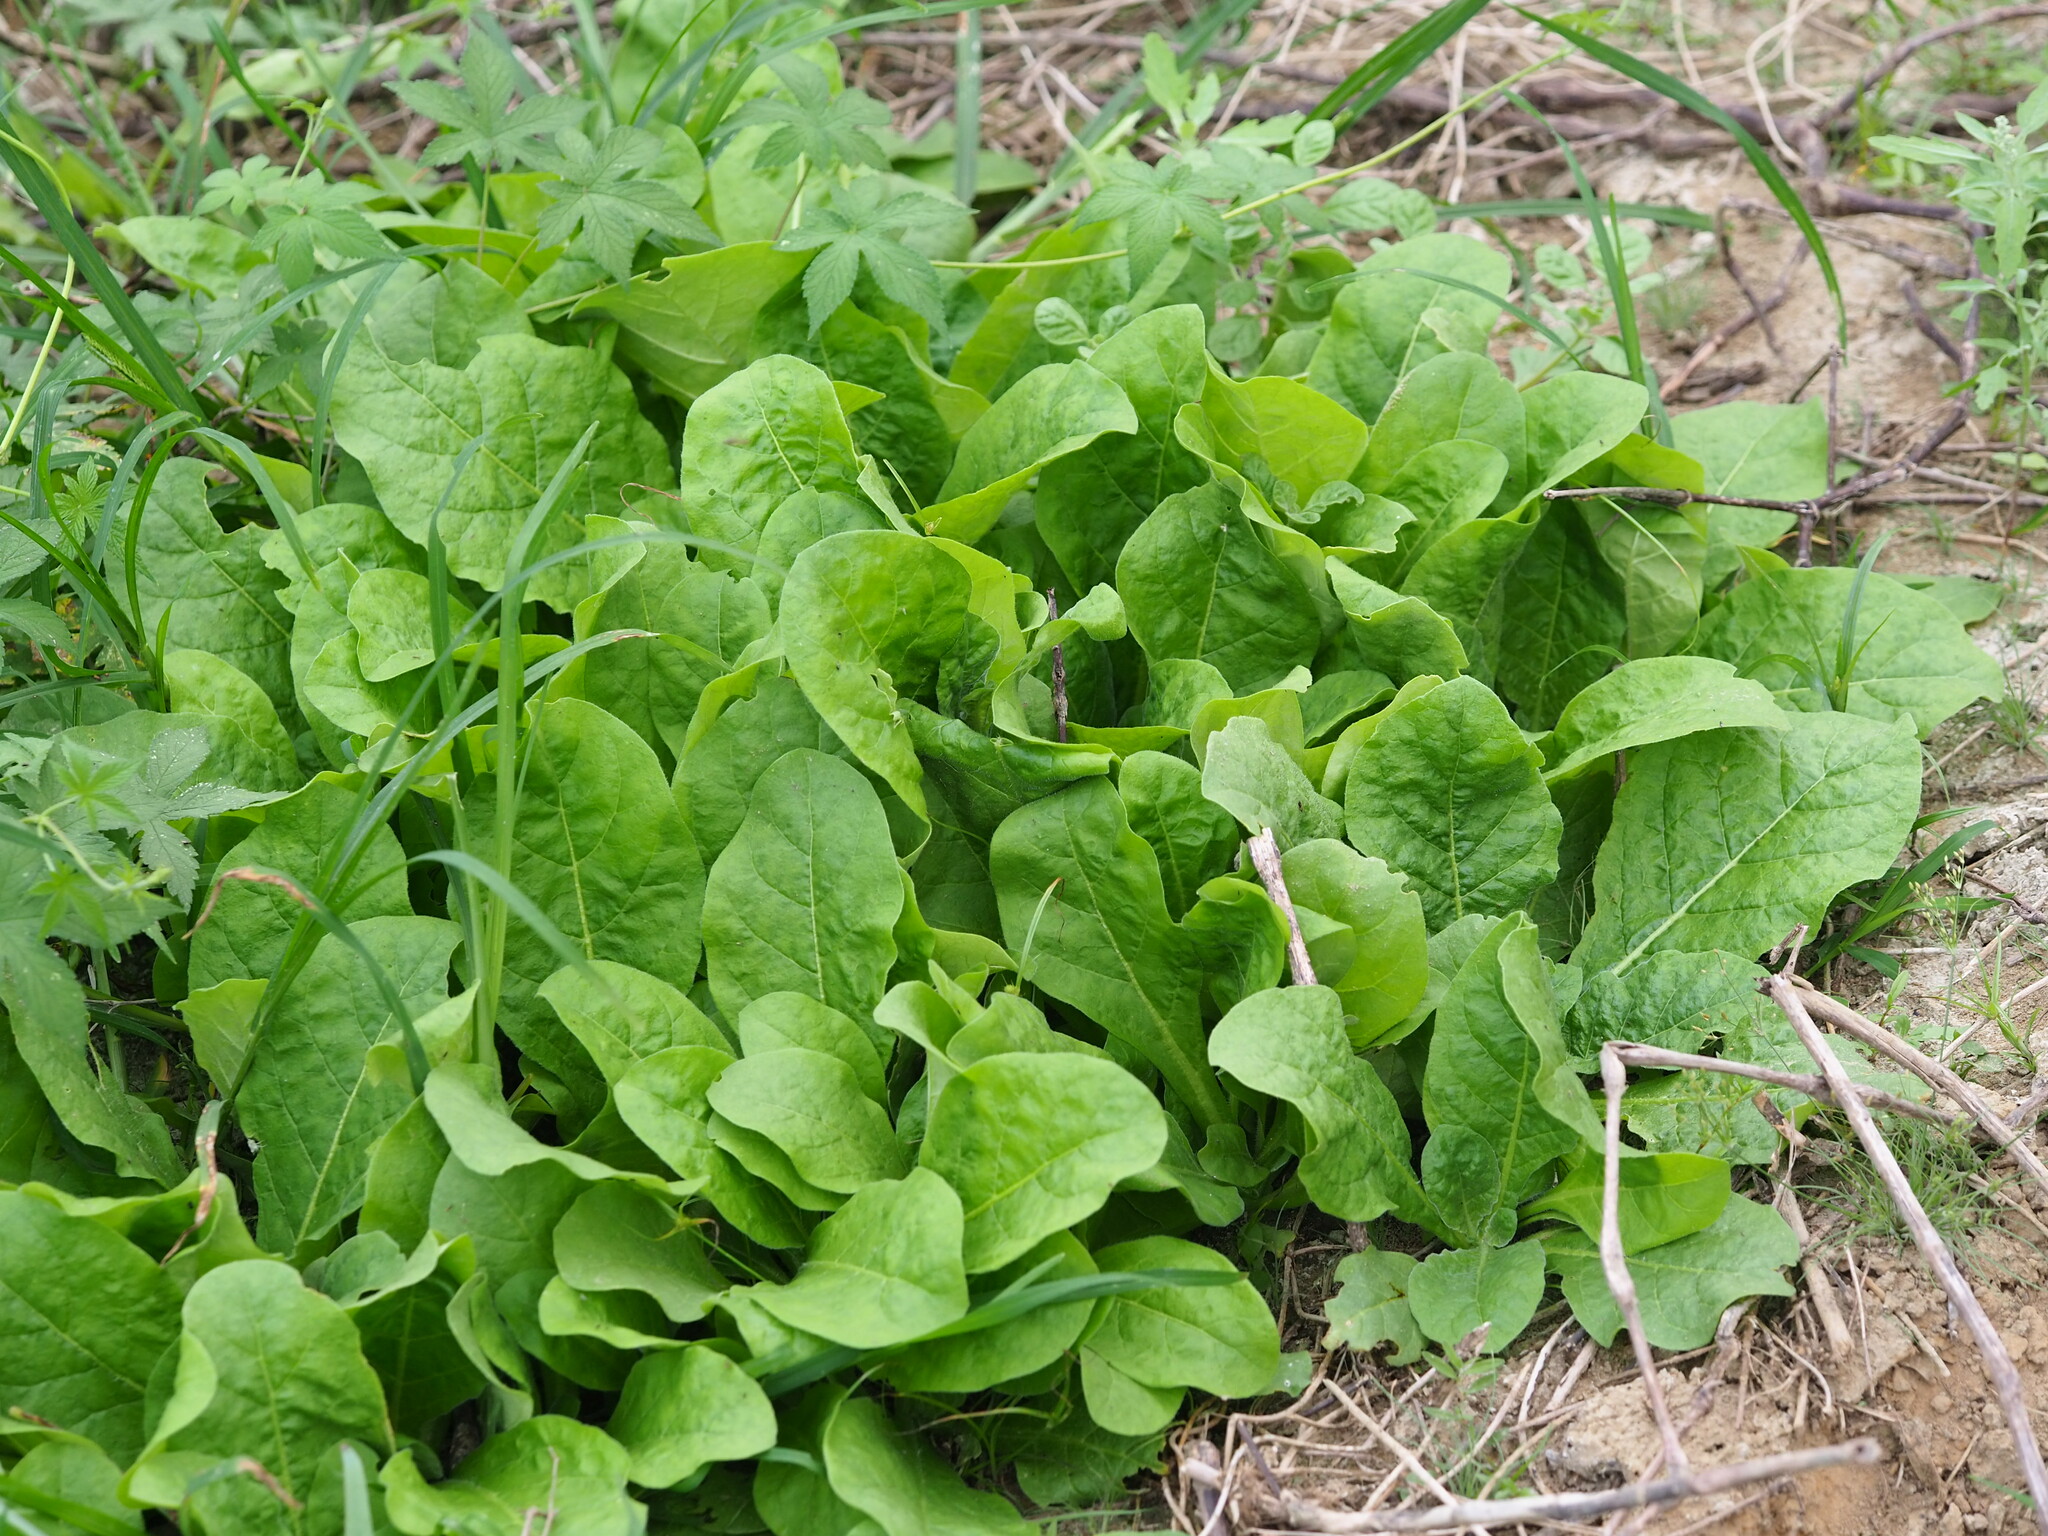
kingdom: Plantae
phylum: Tracheophyta
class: Magnoliopsida
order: Solanales
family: Solanaceae
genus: Nicotiana
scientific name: Nicotiana plumbaginifolia
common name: Tex-mex tobacco
